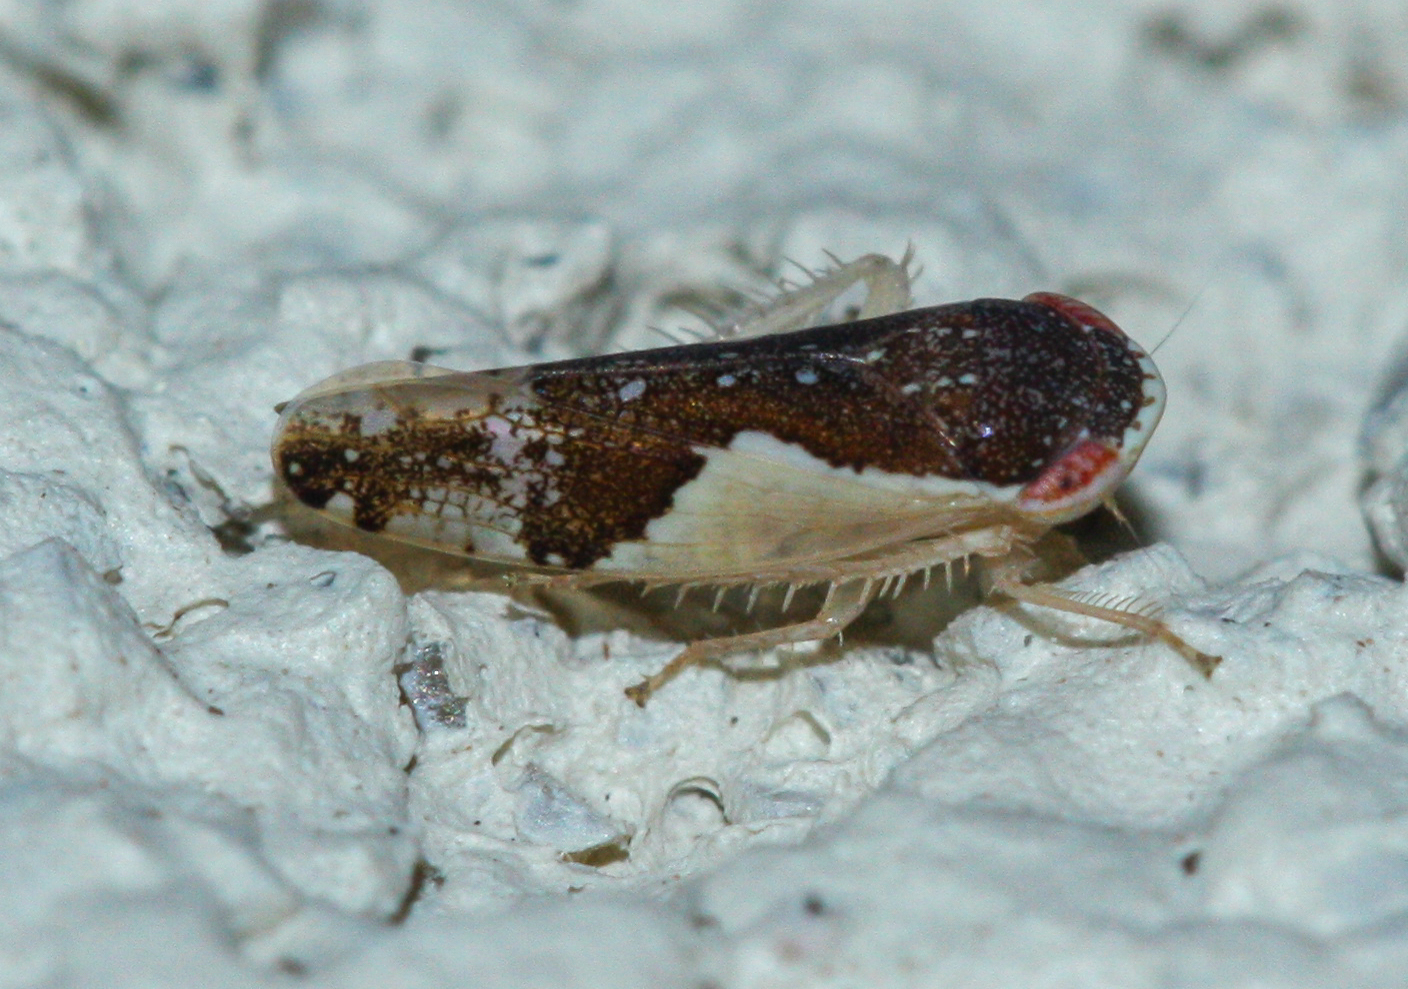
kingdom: Animalia
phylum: Arthropoda
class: Insecta
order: Hemiptera
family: Cicadellidae
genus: Norvellina
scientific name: Norvellina pulchella
